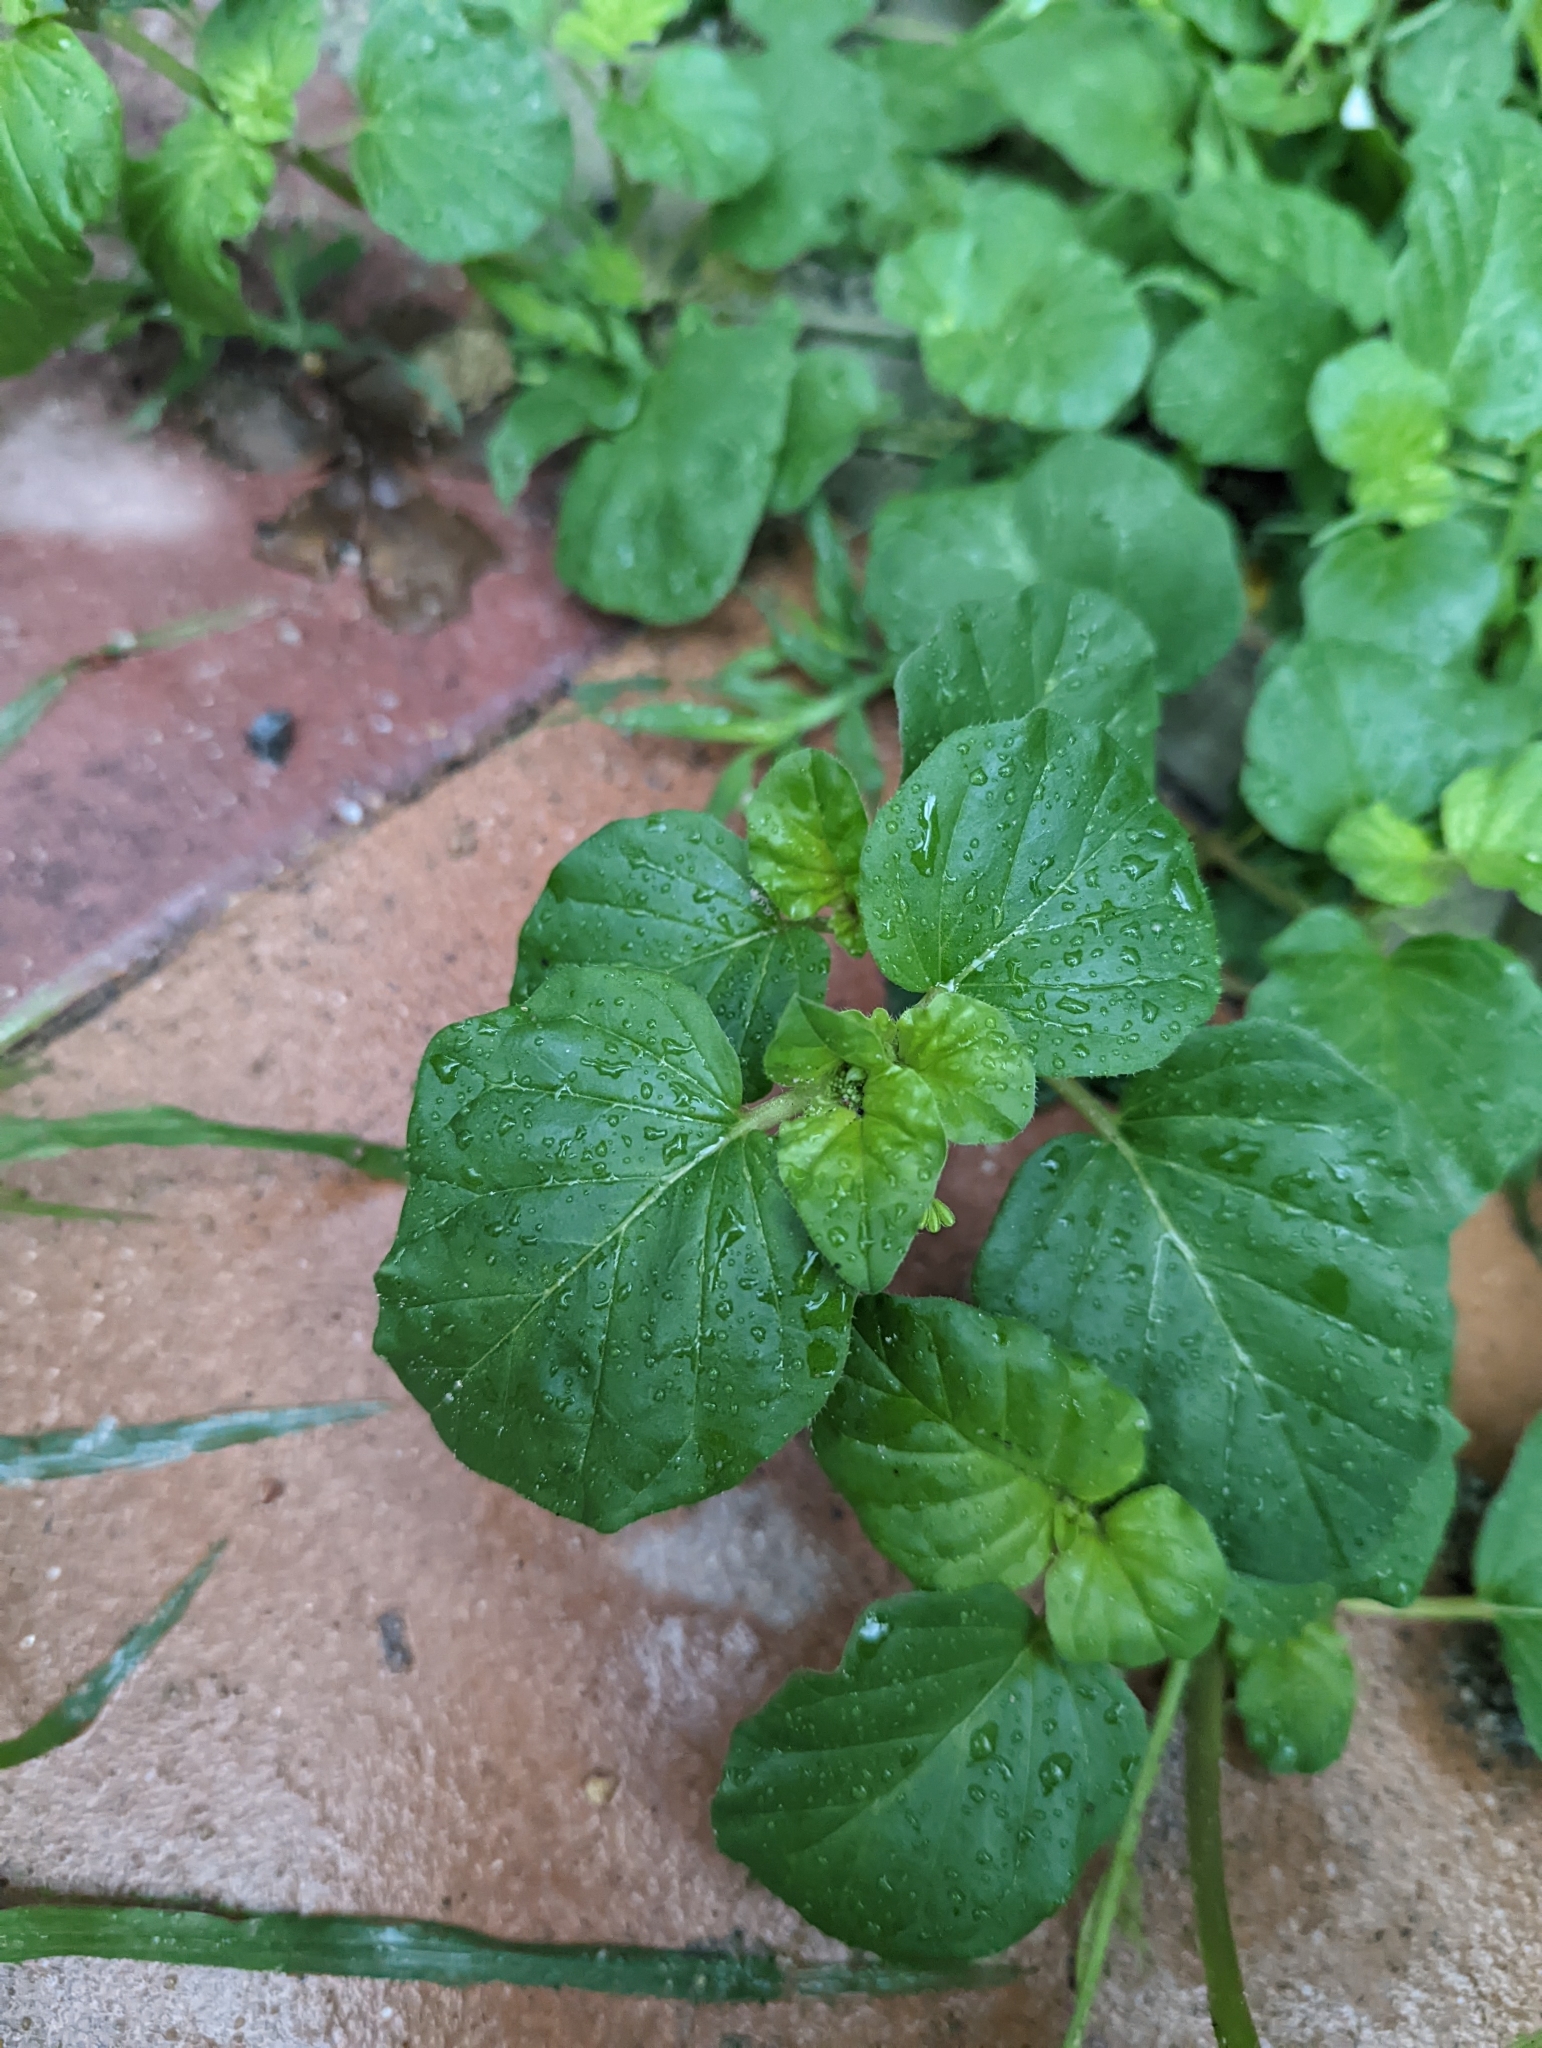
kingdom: Plantae
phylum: Tracheophyta
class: Magnoliopsida
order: Caryophyllales
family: Nyctaginaceae
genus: Boerhavia
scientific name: Boerhavia diffusa
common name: Red spiderling
